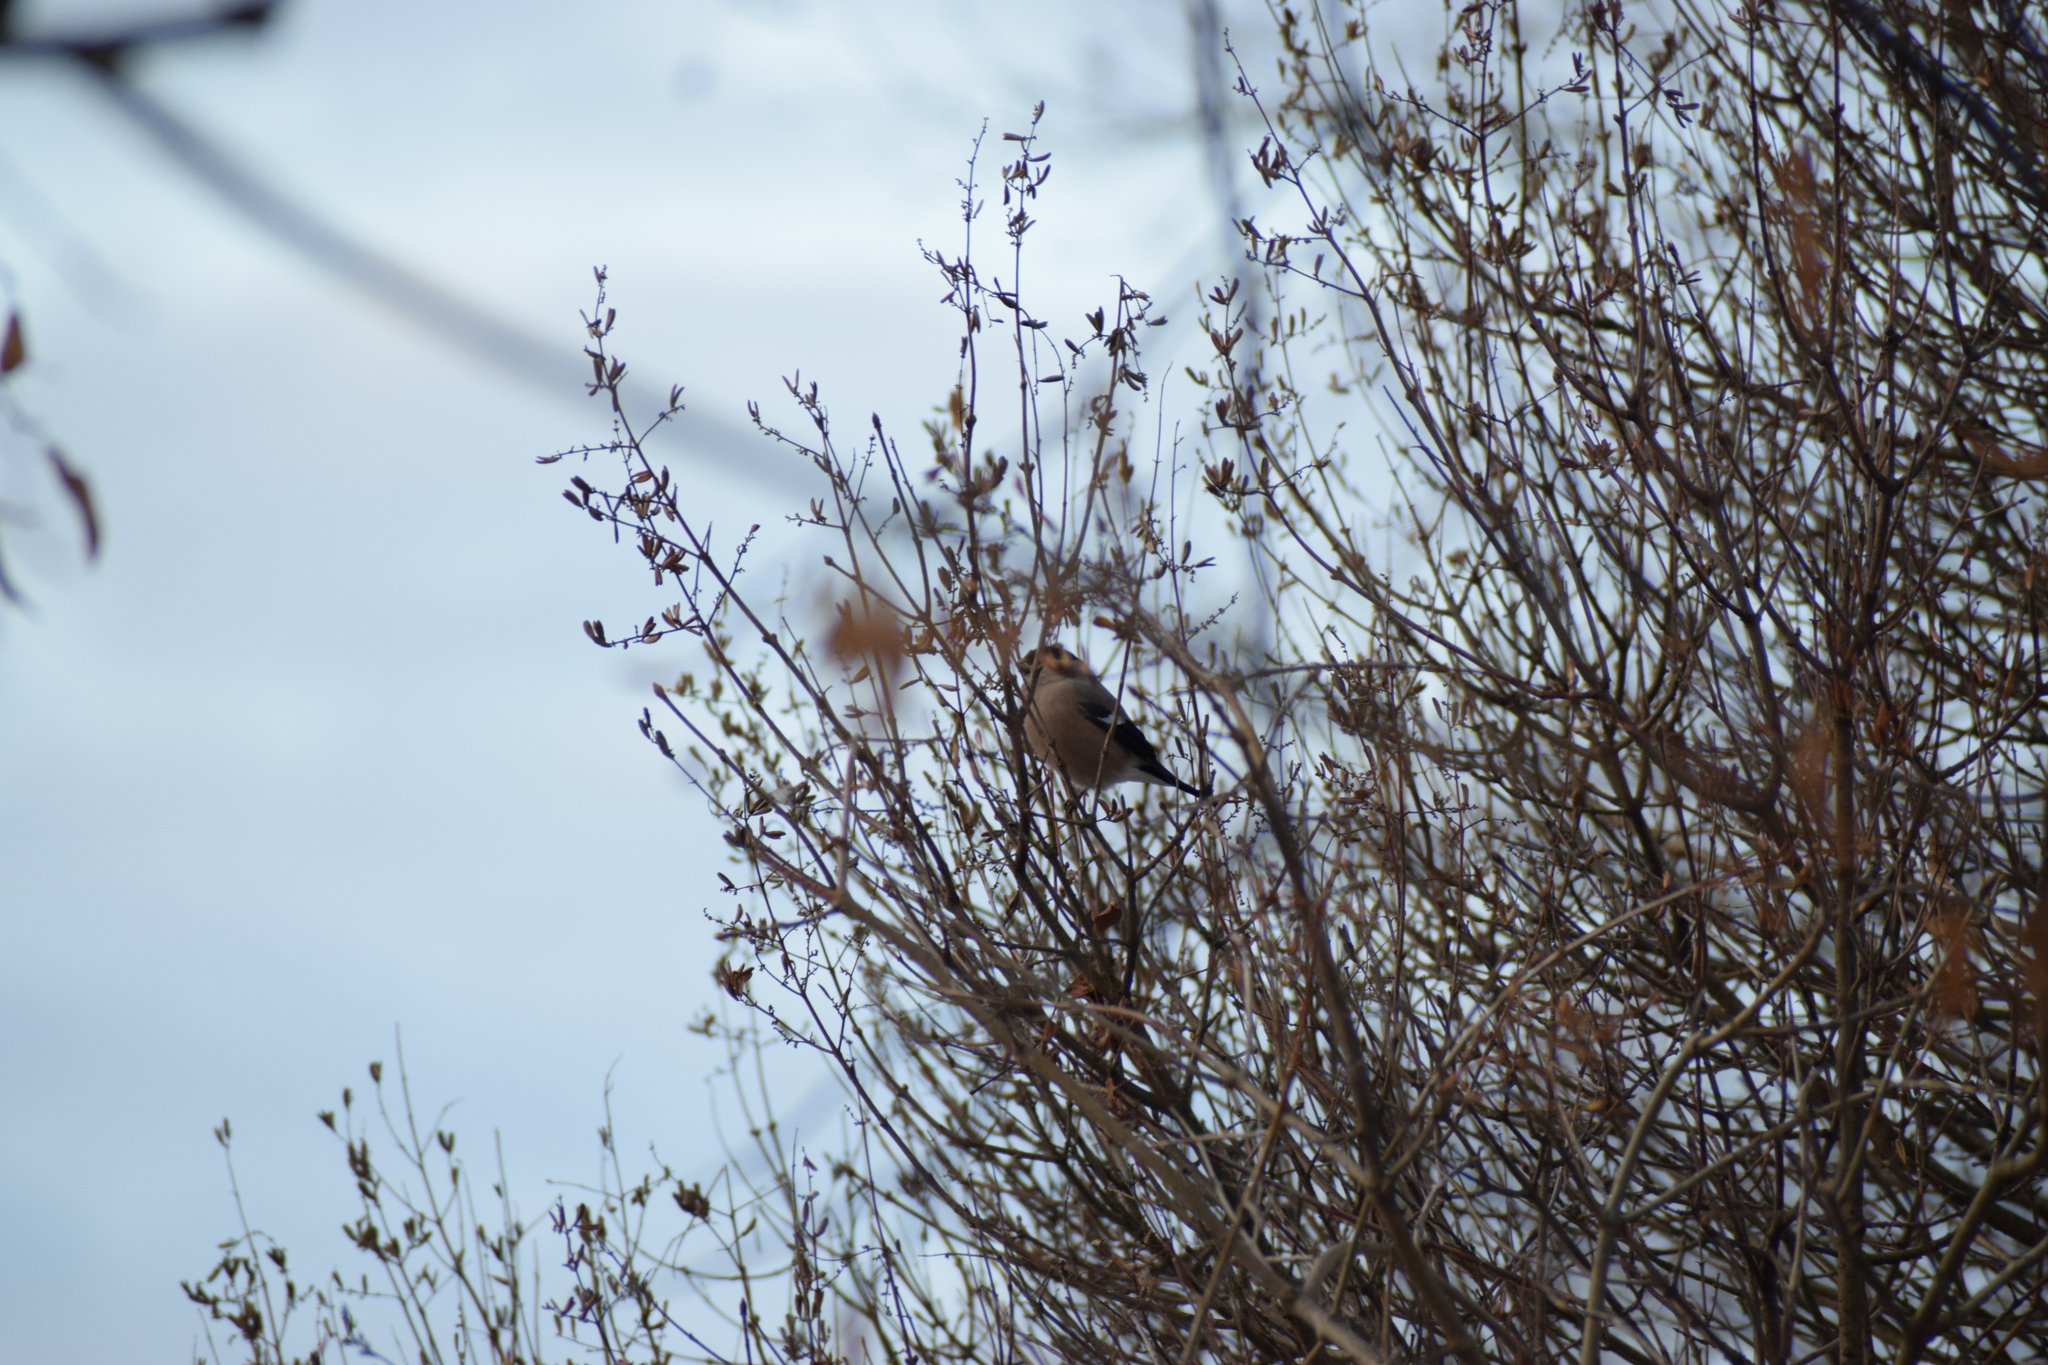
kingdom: Animalia
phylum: Chordata
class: Aves
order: Passeriformes
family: Fringillidae
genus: Pyrrhula
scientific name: Pyrrhula pyrrhula
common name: Eurasian bullfinch
